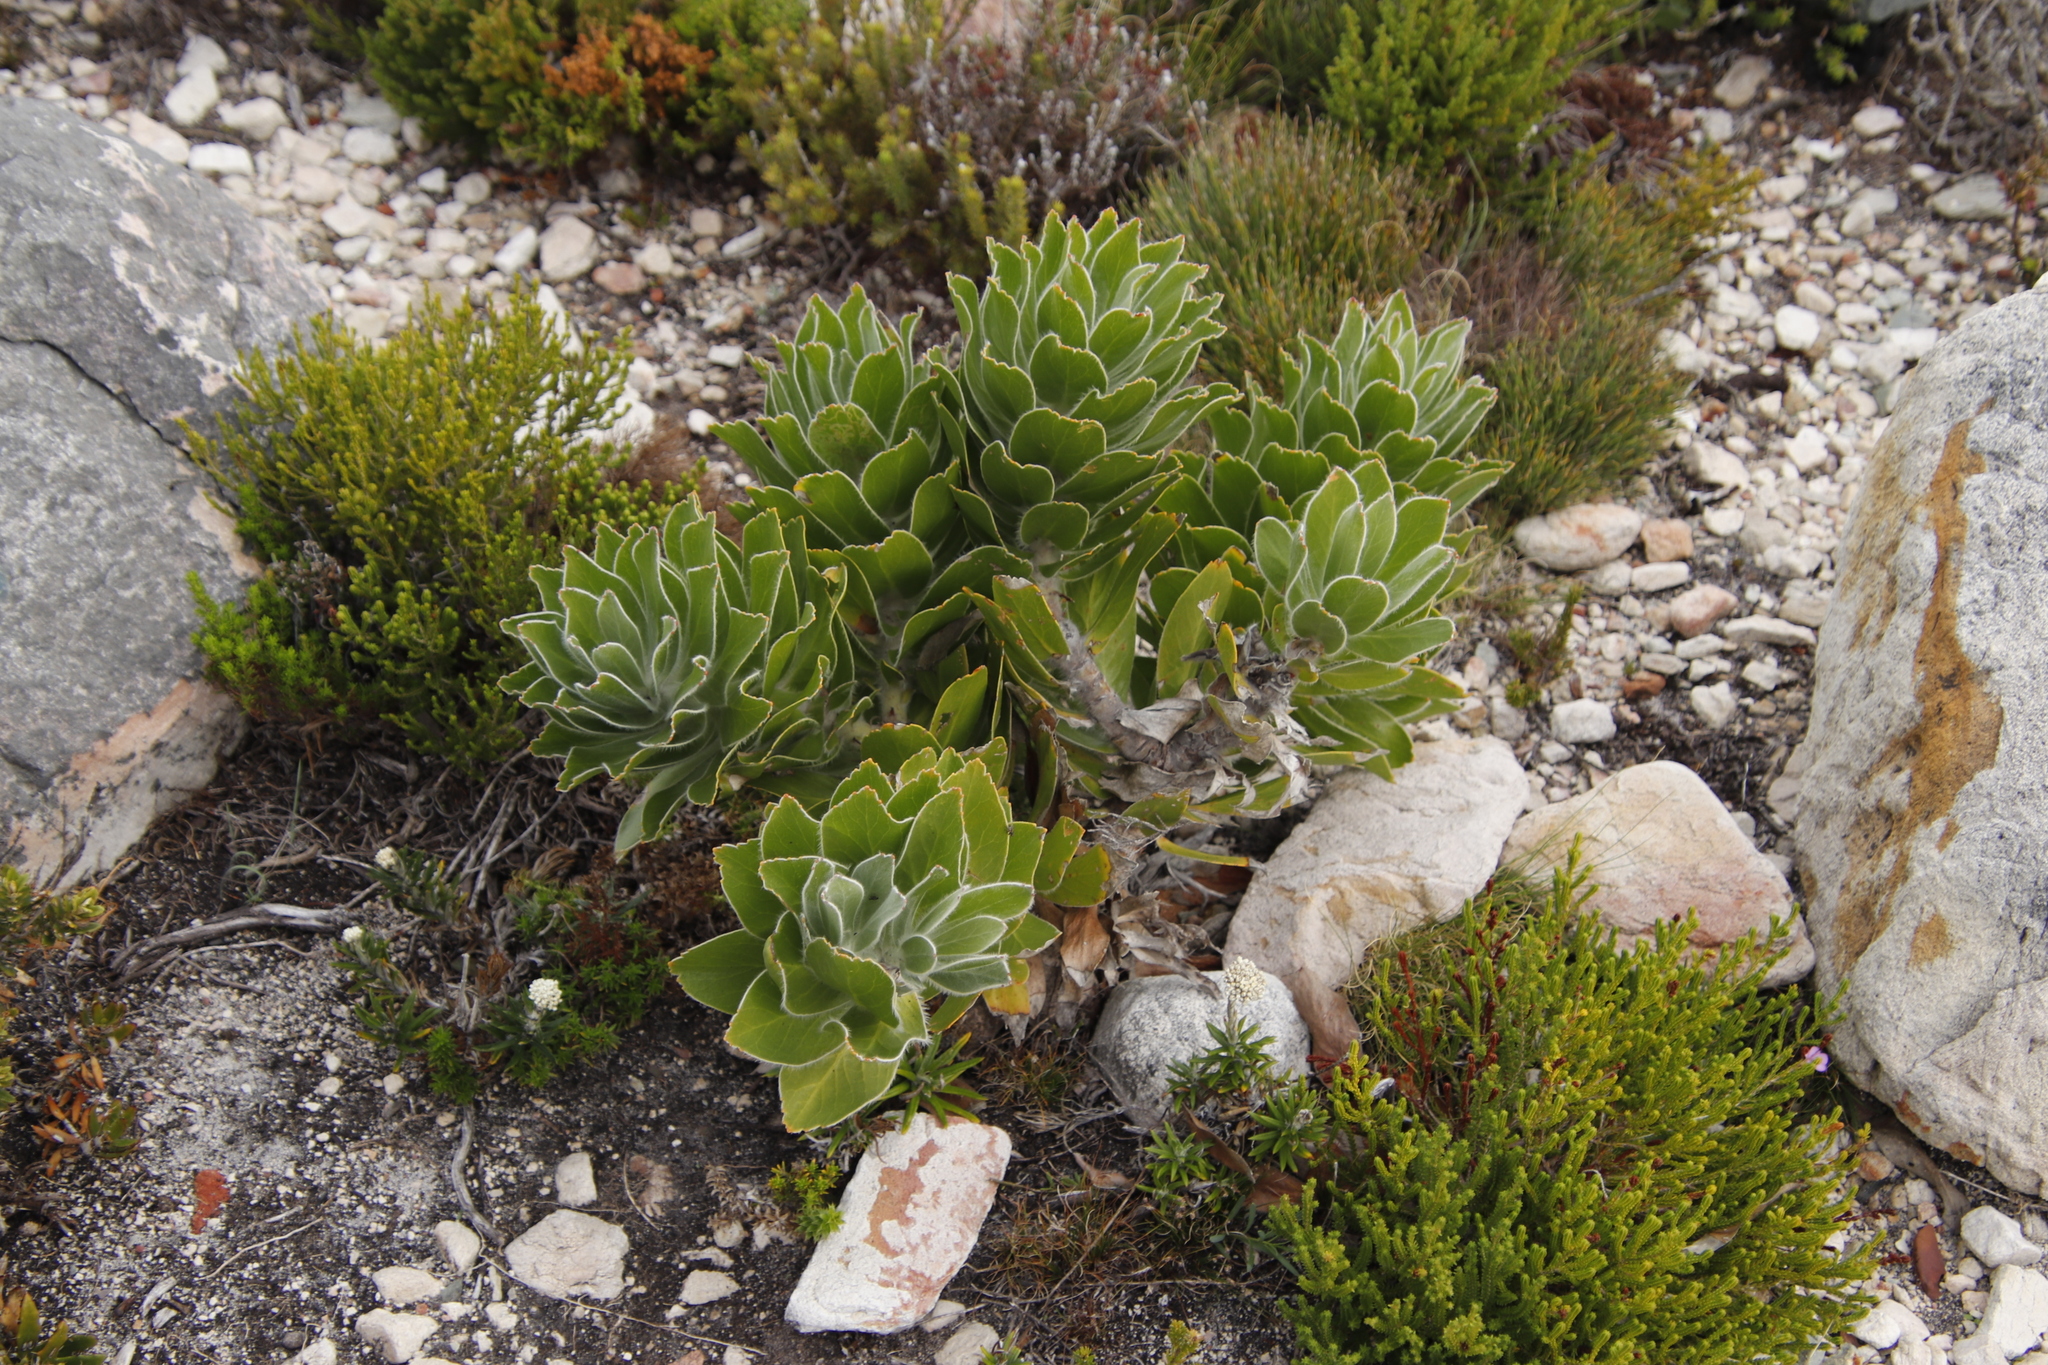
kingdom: Plantae
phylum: Tracheophyta
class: Magnoliopsida
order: Proteales
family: Proteaceae
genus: Leucospermum
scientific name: Leucospermum conocarpodendron
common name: Tree pincushion
